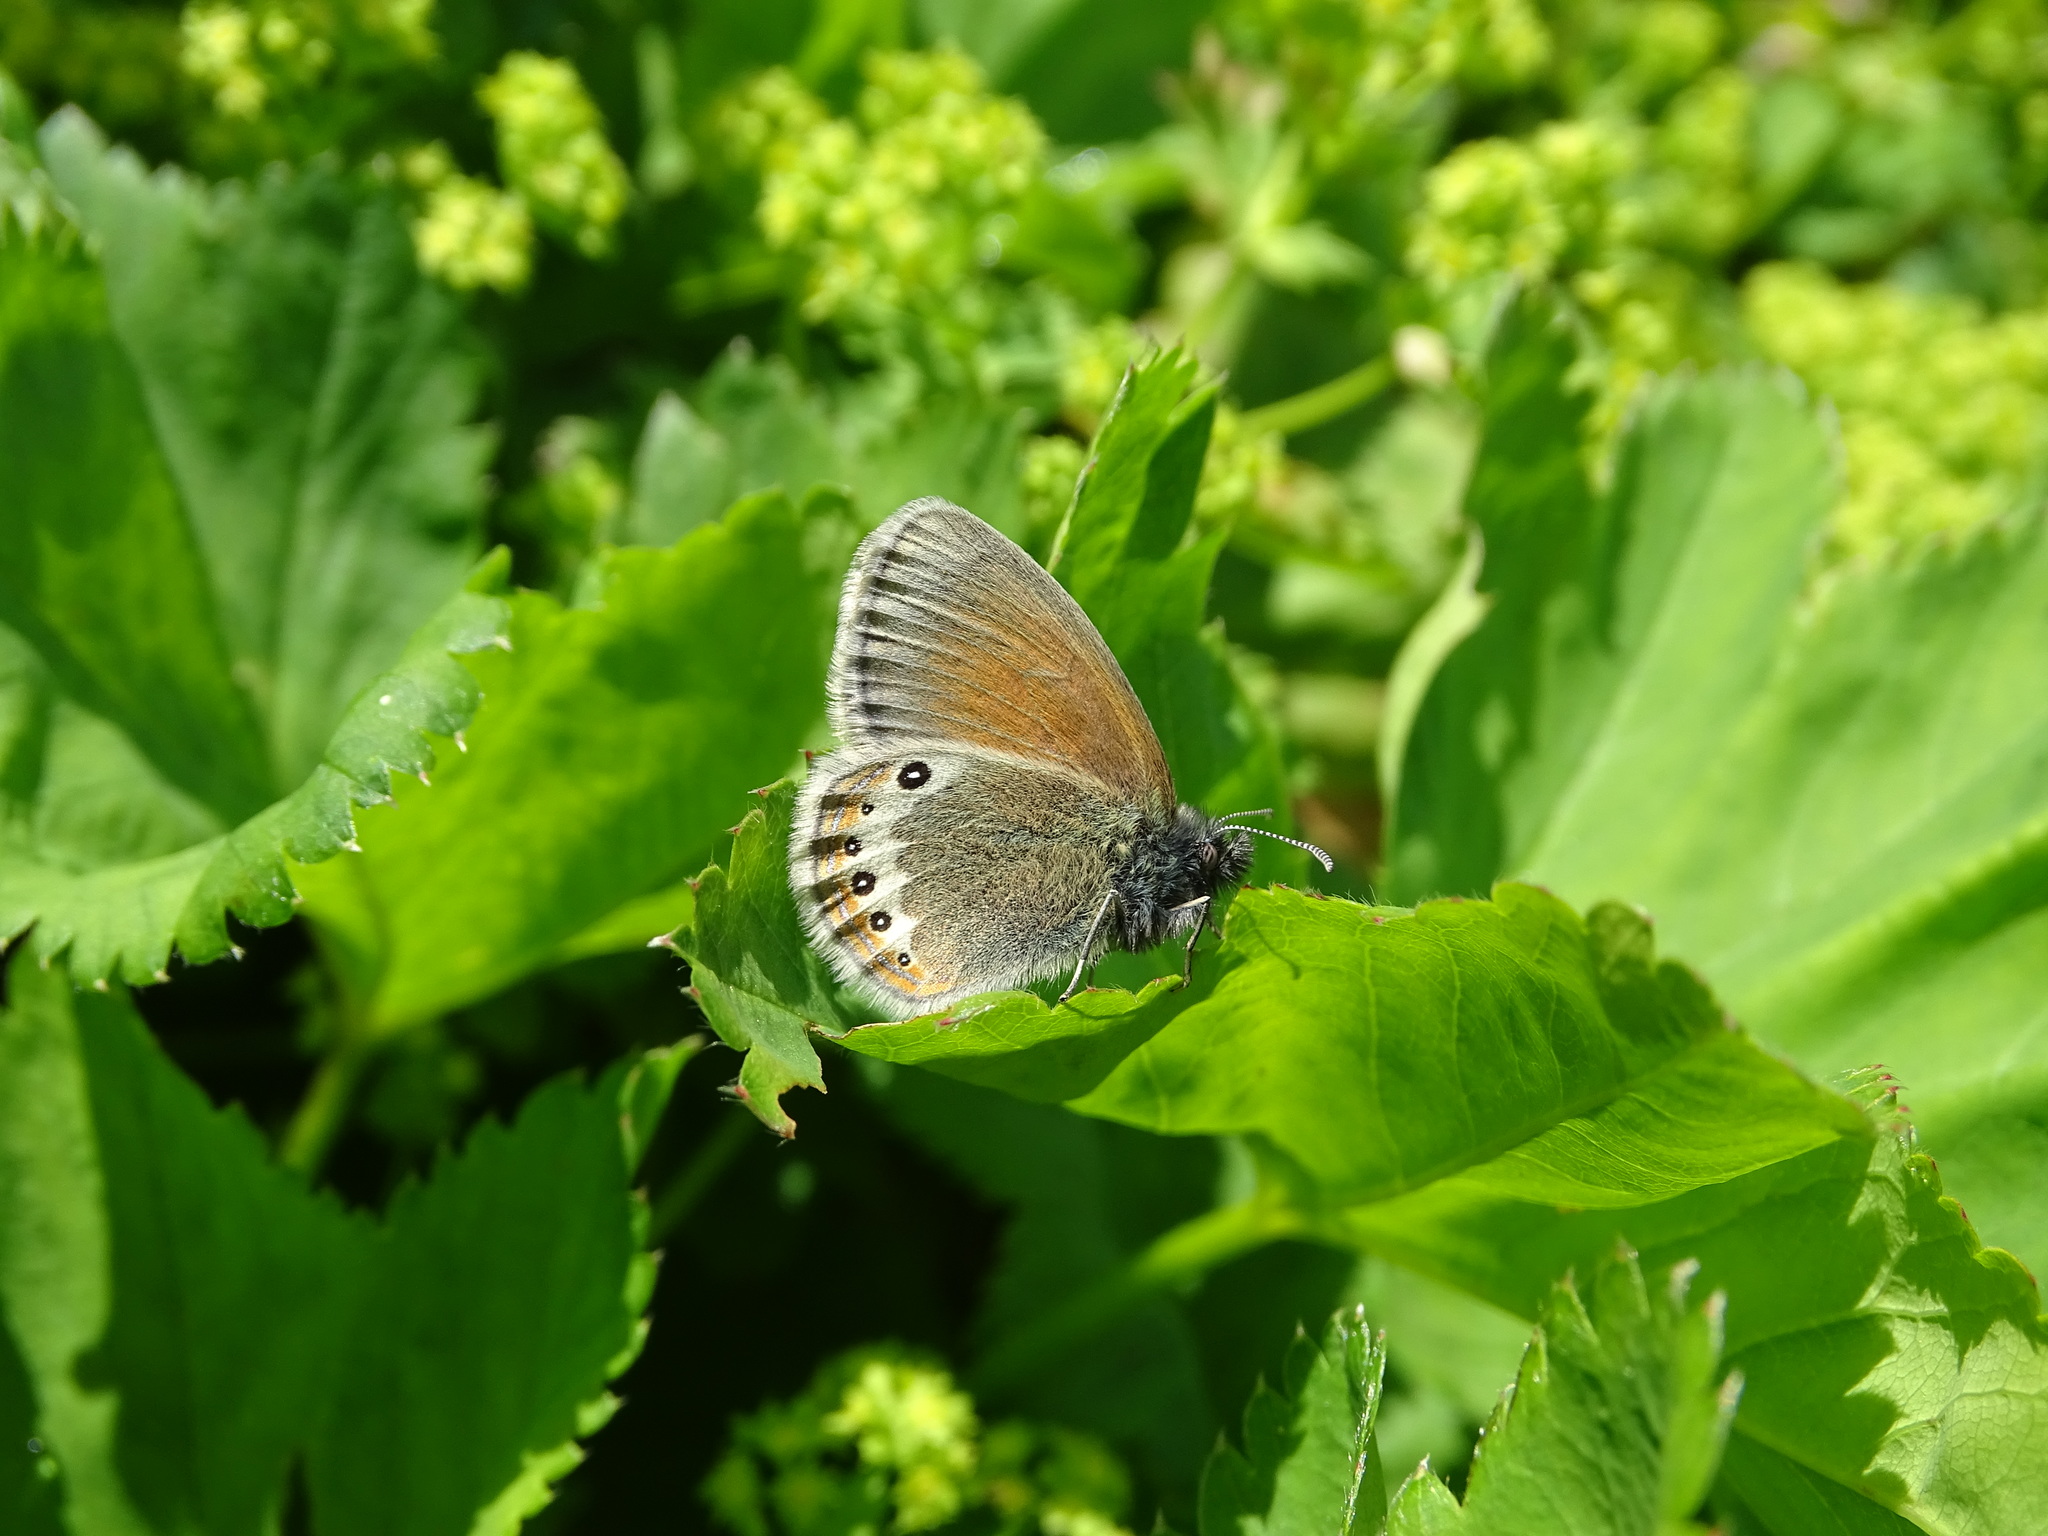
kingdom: Animalia
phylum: Arthropoda
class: Insecta
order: Lepidoptera
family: Nymphalidae
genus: Coenonympha
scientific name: Coenonympha
